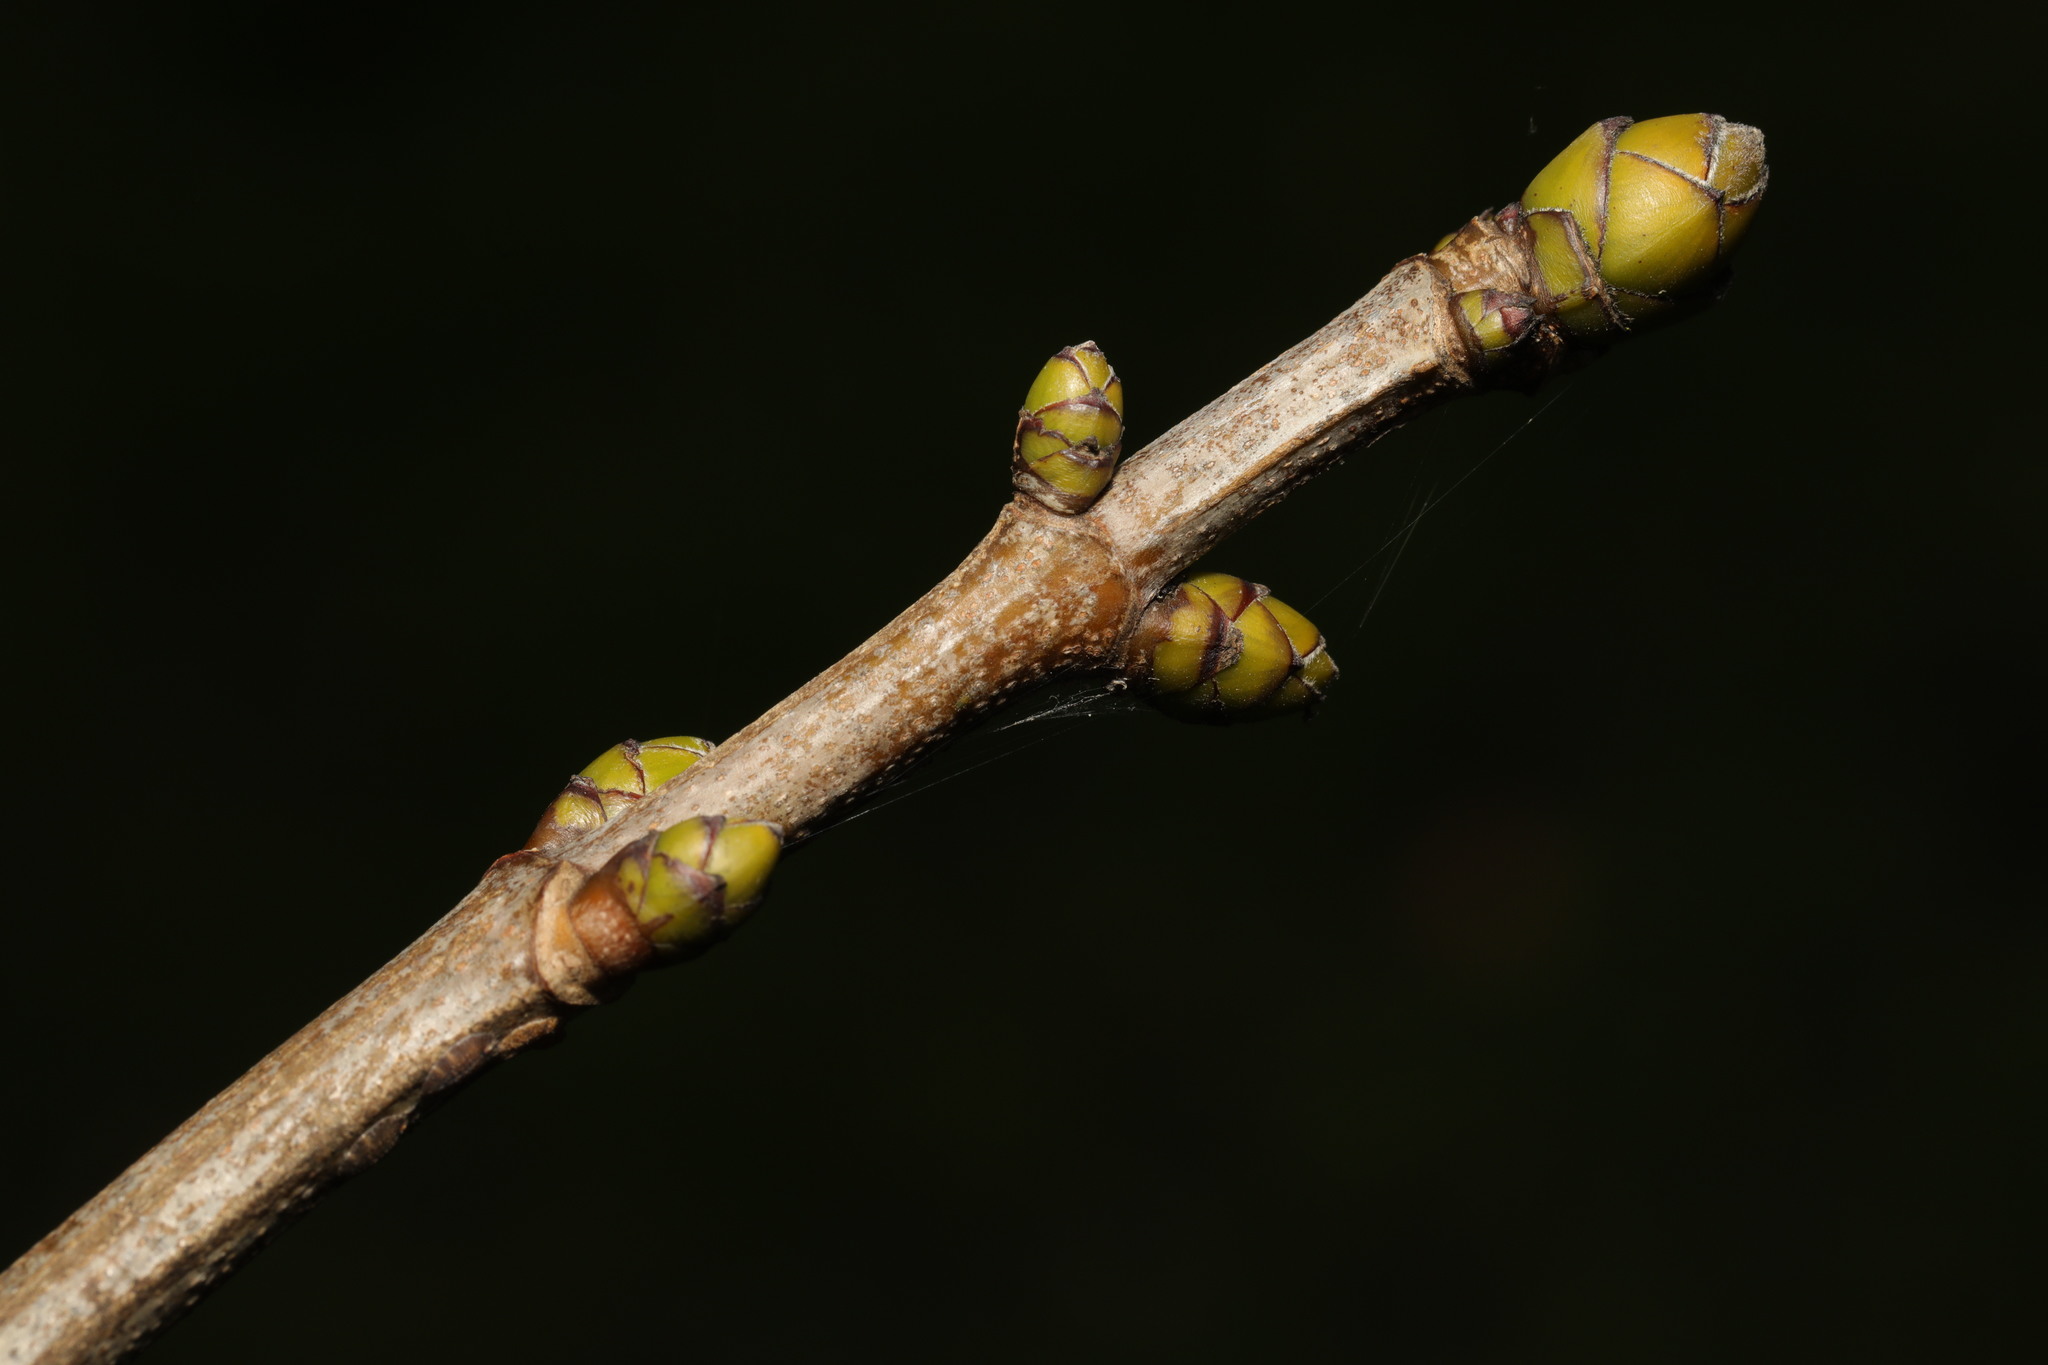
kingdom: Plantae
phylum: Tracheophyta
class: Magnoliopsida
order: Sapindales
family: Sapindaceae
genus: Acer
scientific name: Acer pseudoplatanus
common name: Sycamore
